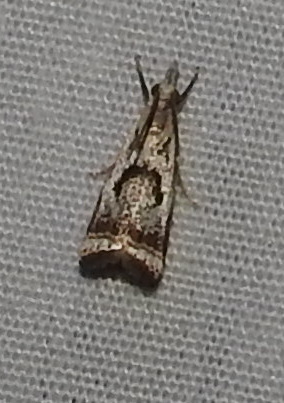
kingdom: Animalia
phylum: Arthropoda
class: Insecta
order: Lepidoptera
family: Crambidae
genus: Microcrambus
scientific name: Microcrambus elegans
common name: Elegant grass-veneer
